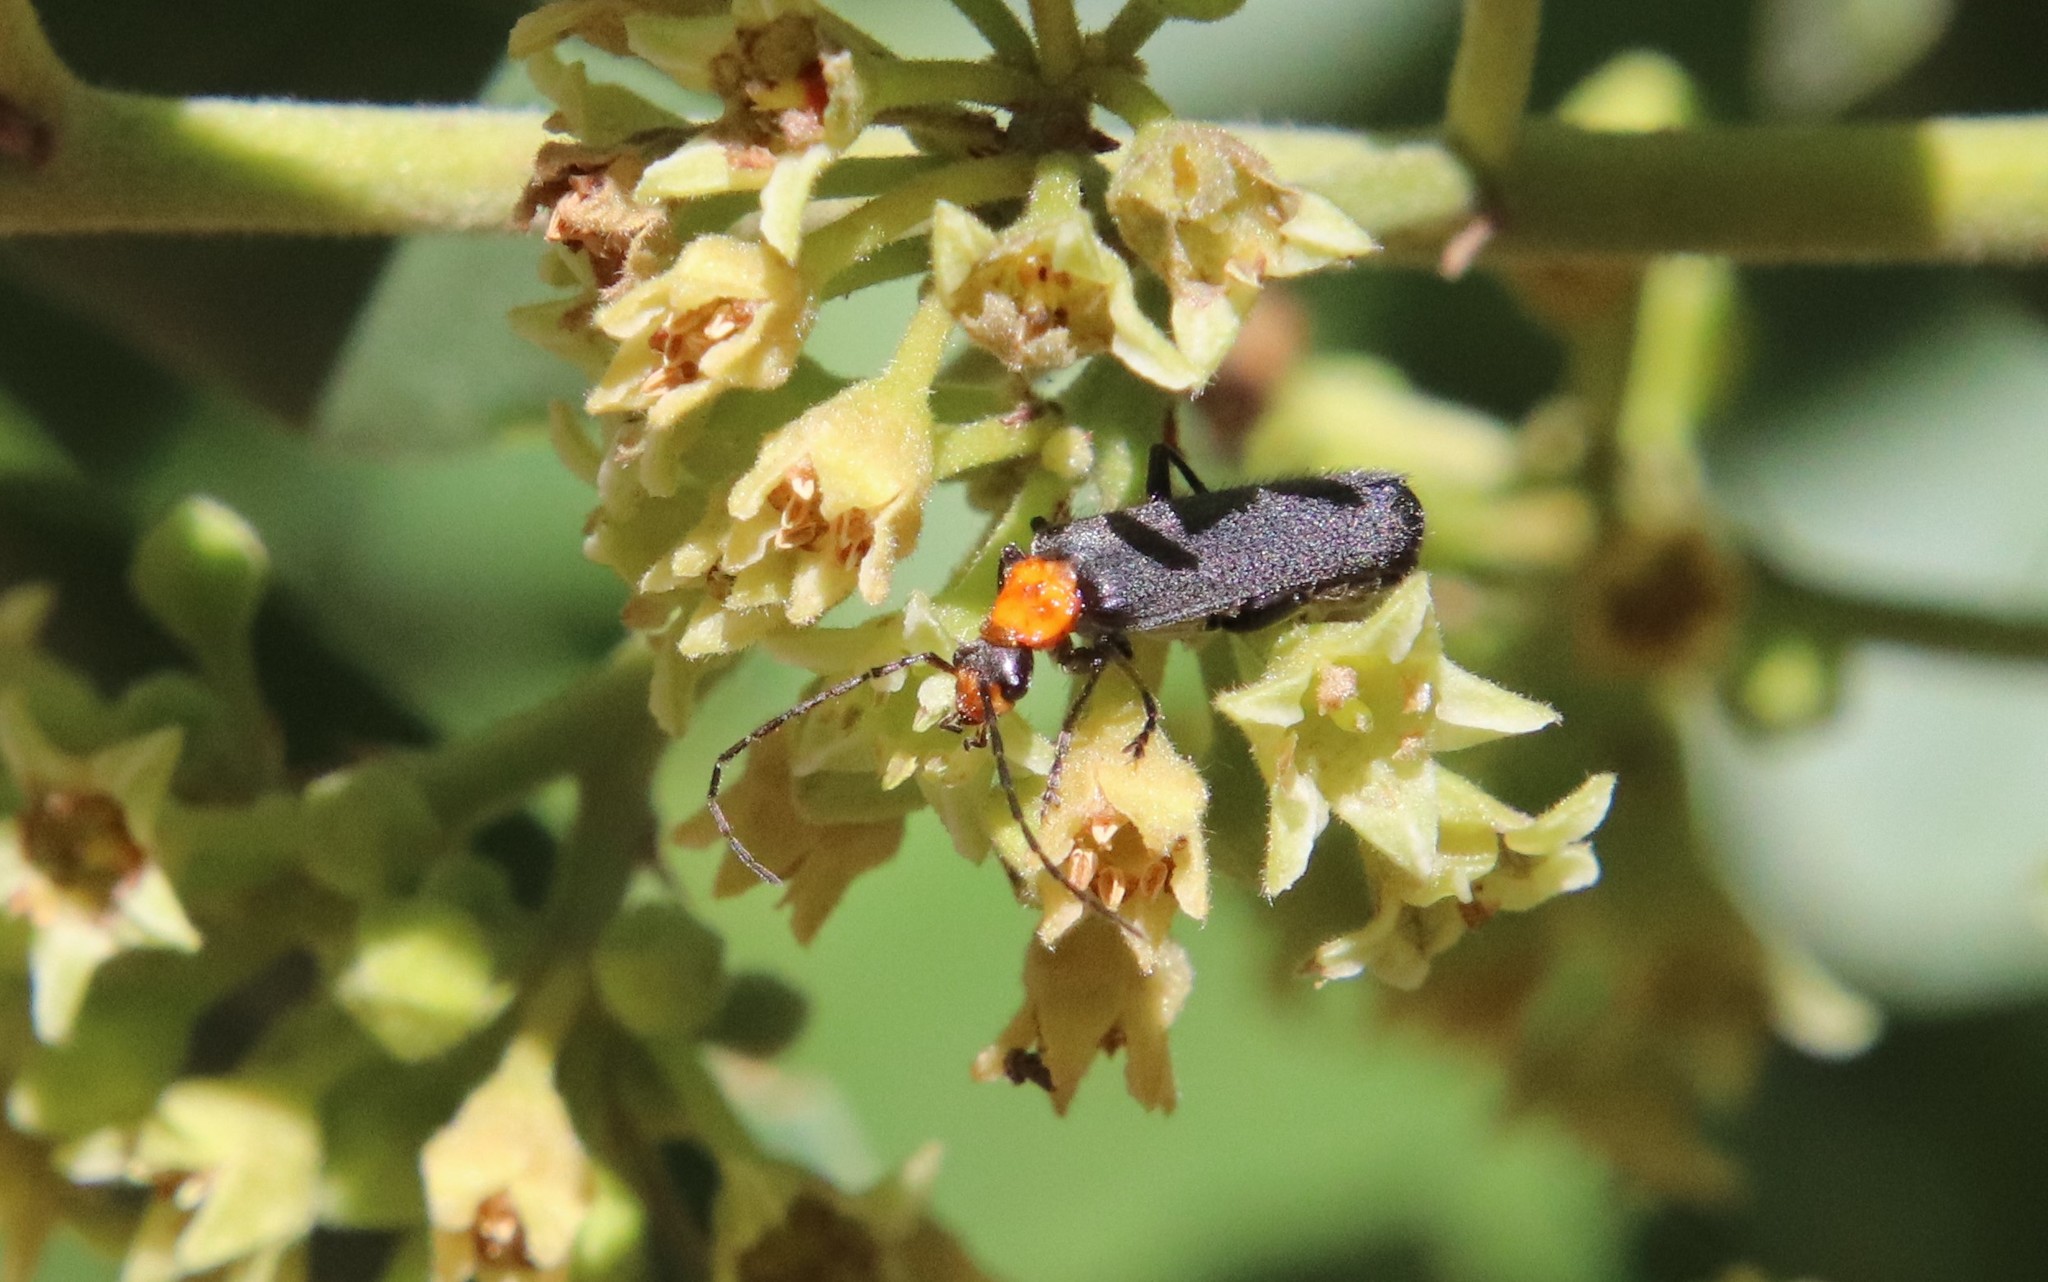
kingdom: Animalia
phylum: Arthropoda
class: Insecta
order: Coleoptera
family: Cantharidae
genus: Cultellunguis
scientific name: Cultellunguis ingenuus
